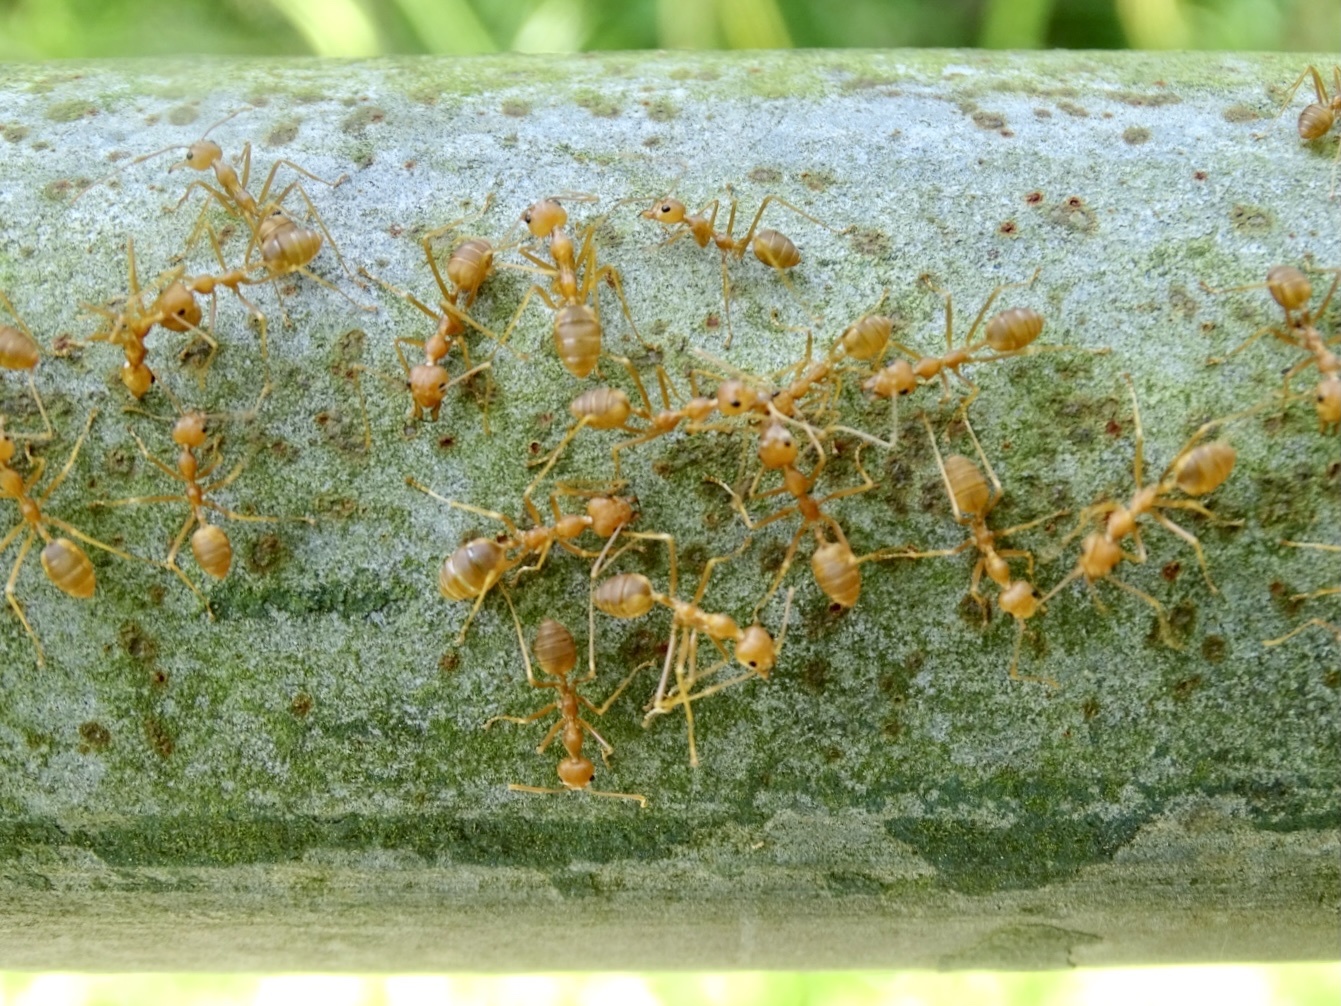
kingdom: Animalia
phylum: Arthropoda
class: Insecta
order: Hymenoptera
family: Formicidae
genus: Oecophylla
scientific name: Oecophylla smaragdina
